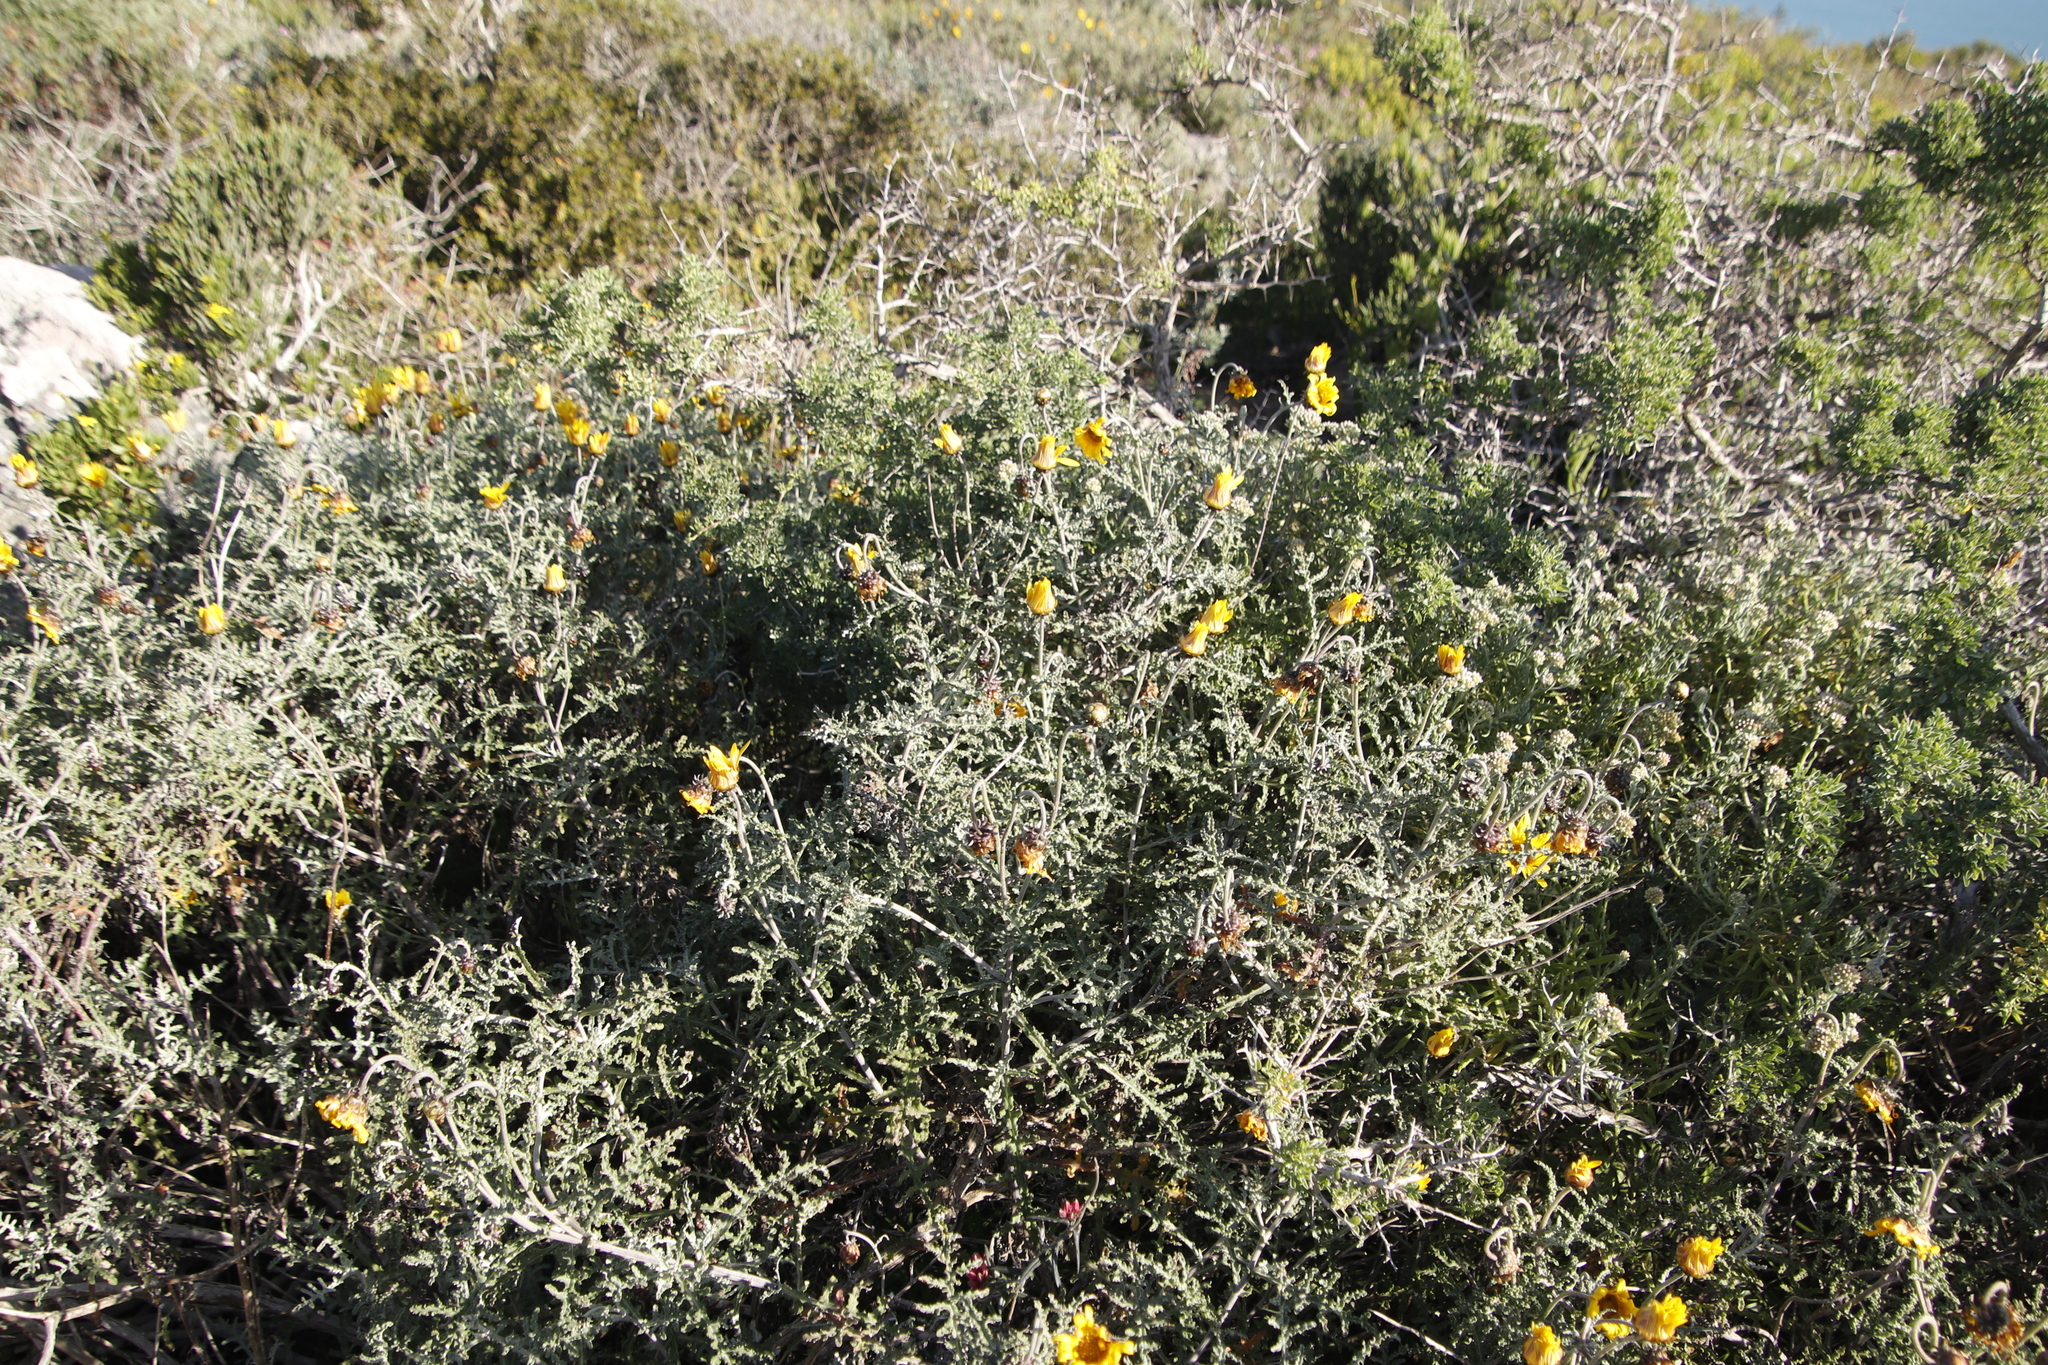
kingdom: Plantae
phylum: Tracheophyta
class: Magnoliopsida
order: Asterales
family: Asteraceae
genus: Arctotis
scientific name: Arctotis laciniata
